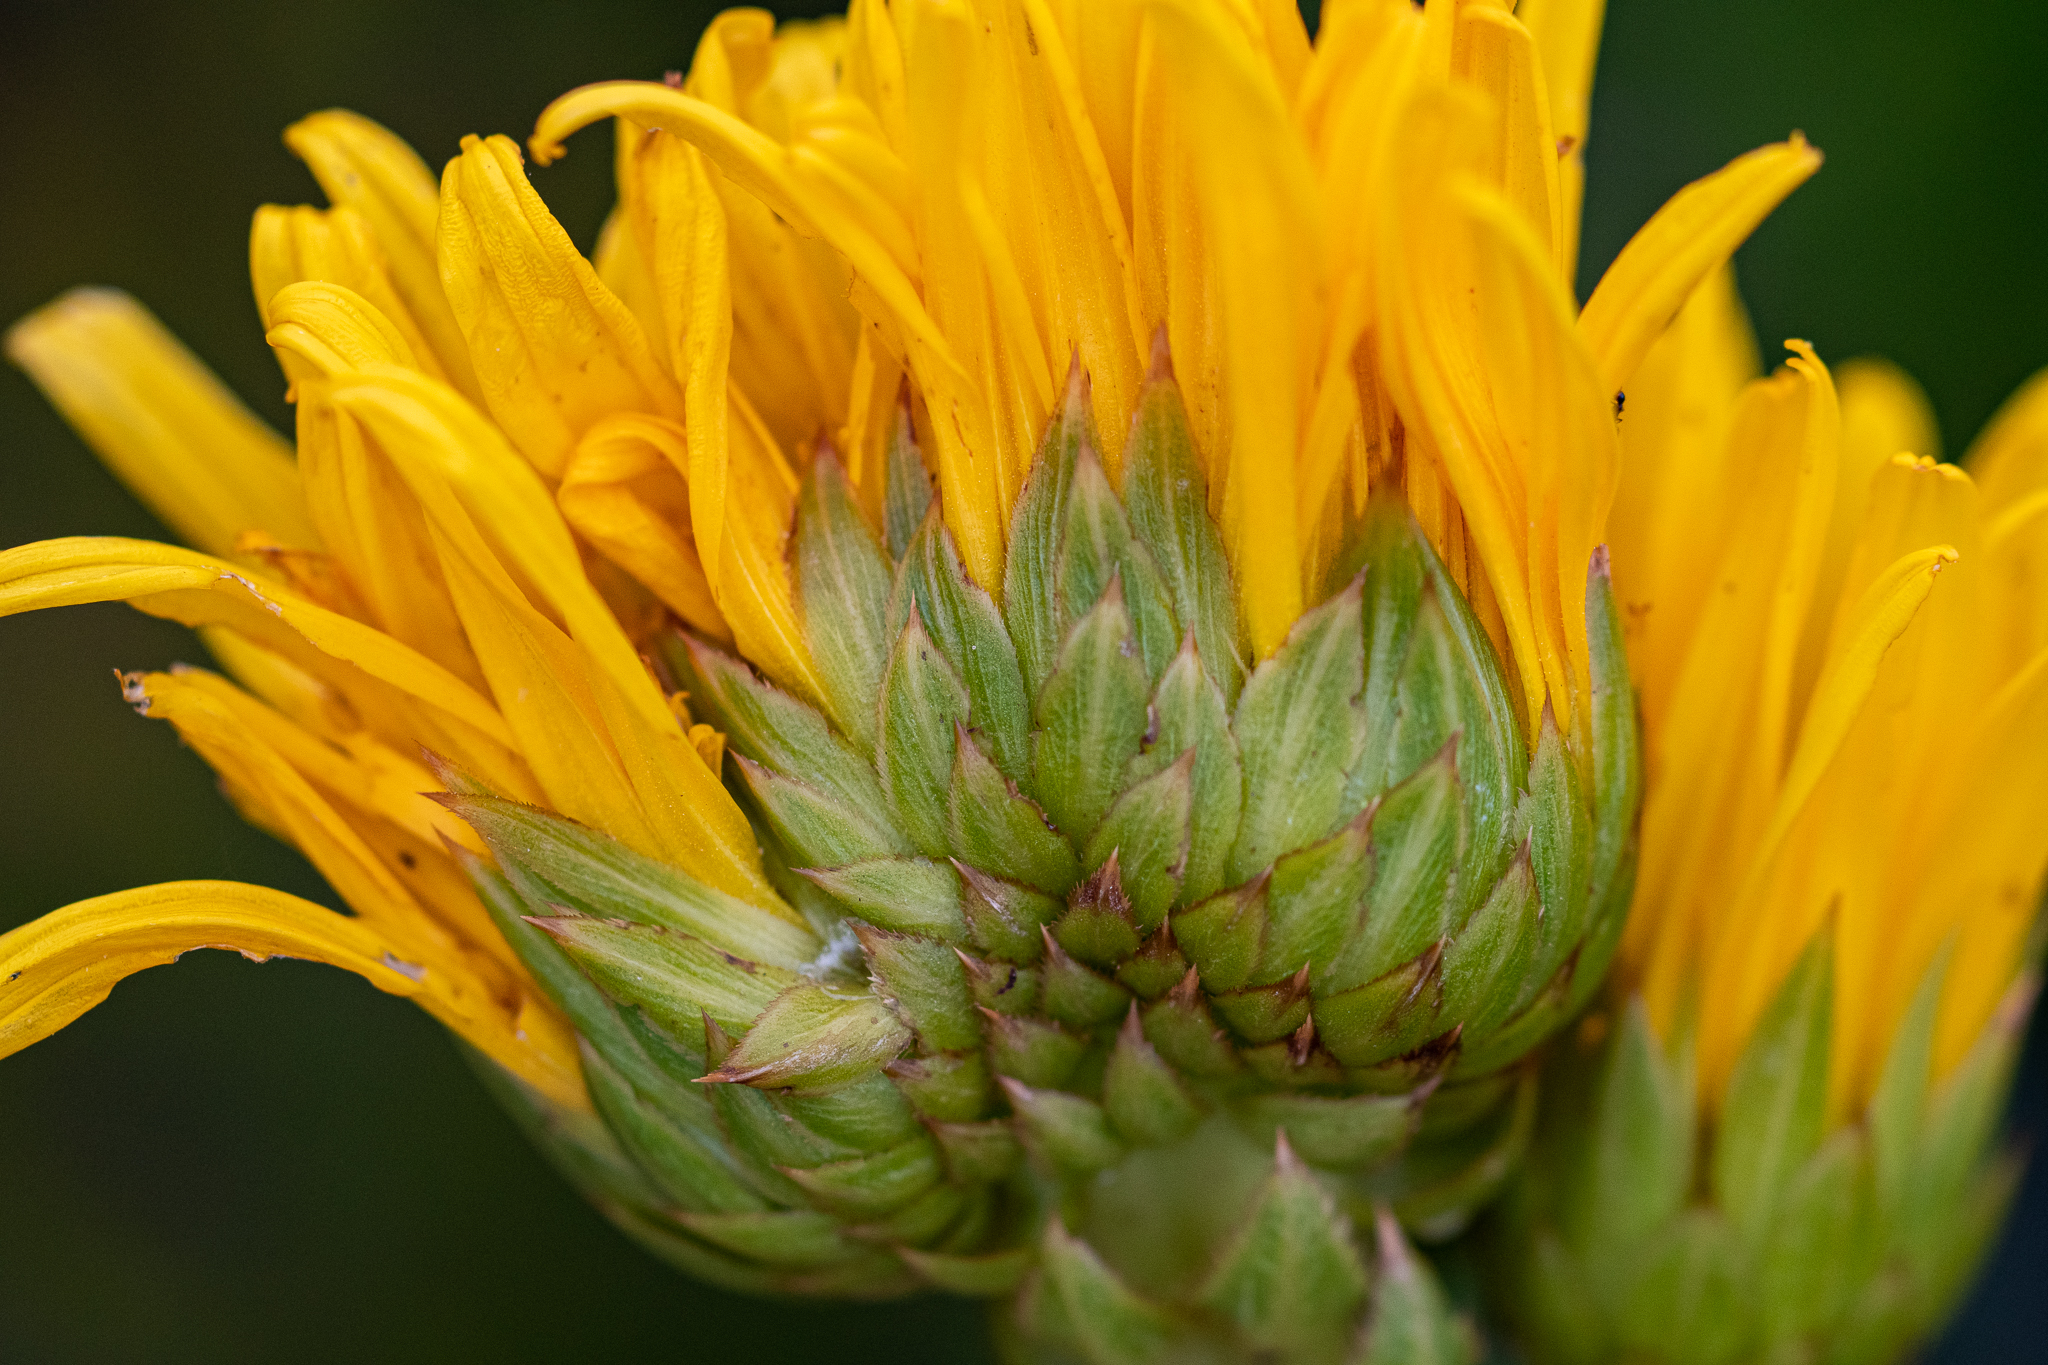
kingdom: Plantae
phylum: Tracheophyta
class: Magnoliopsida
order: Asterales
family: Asteraceae
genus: Berkheya
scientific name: Berkheya herbacea
